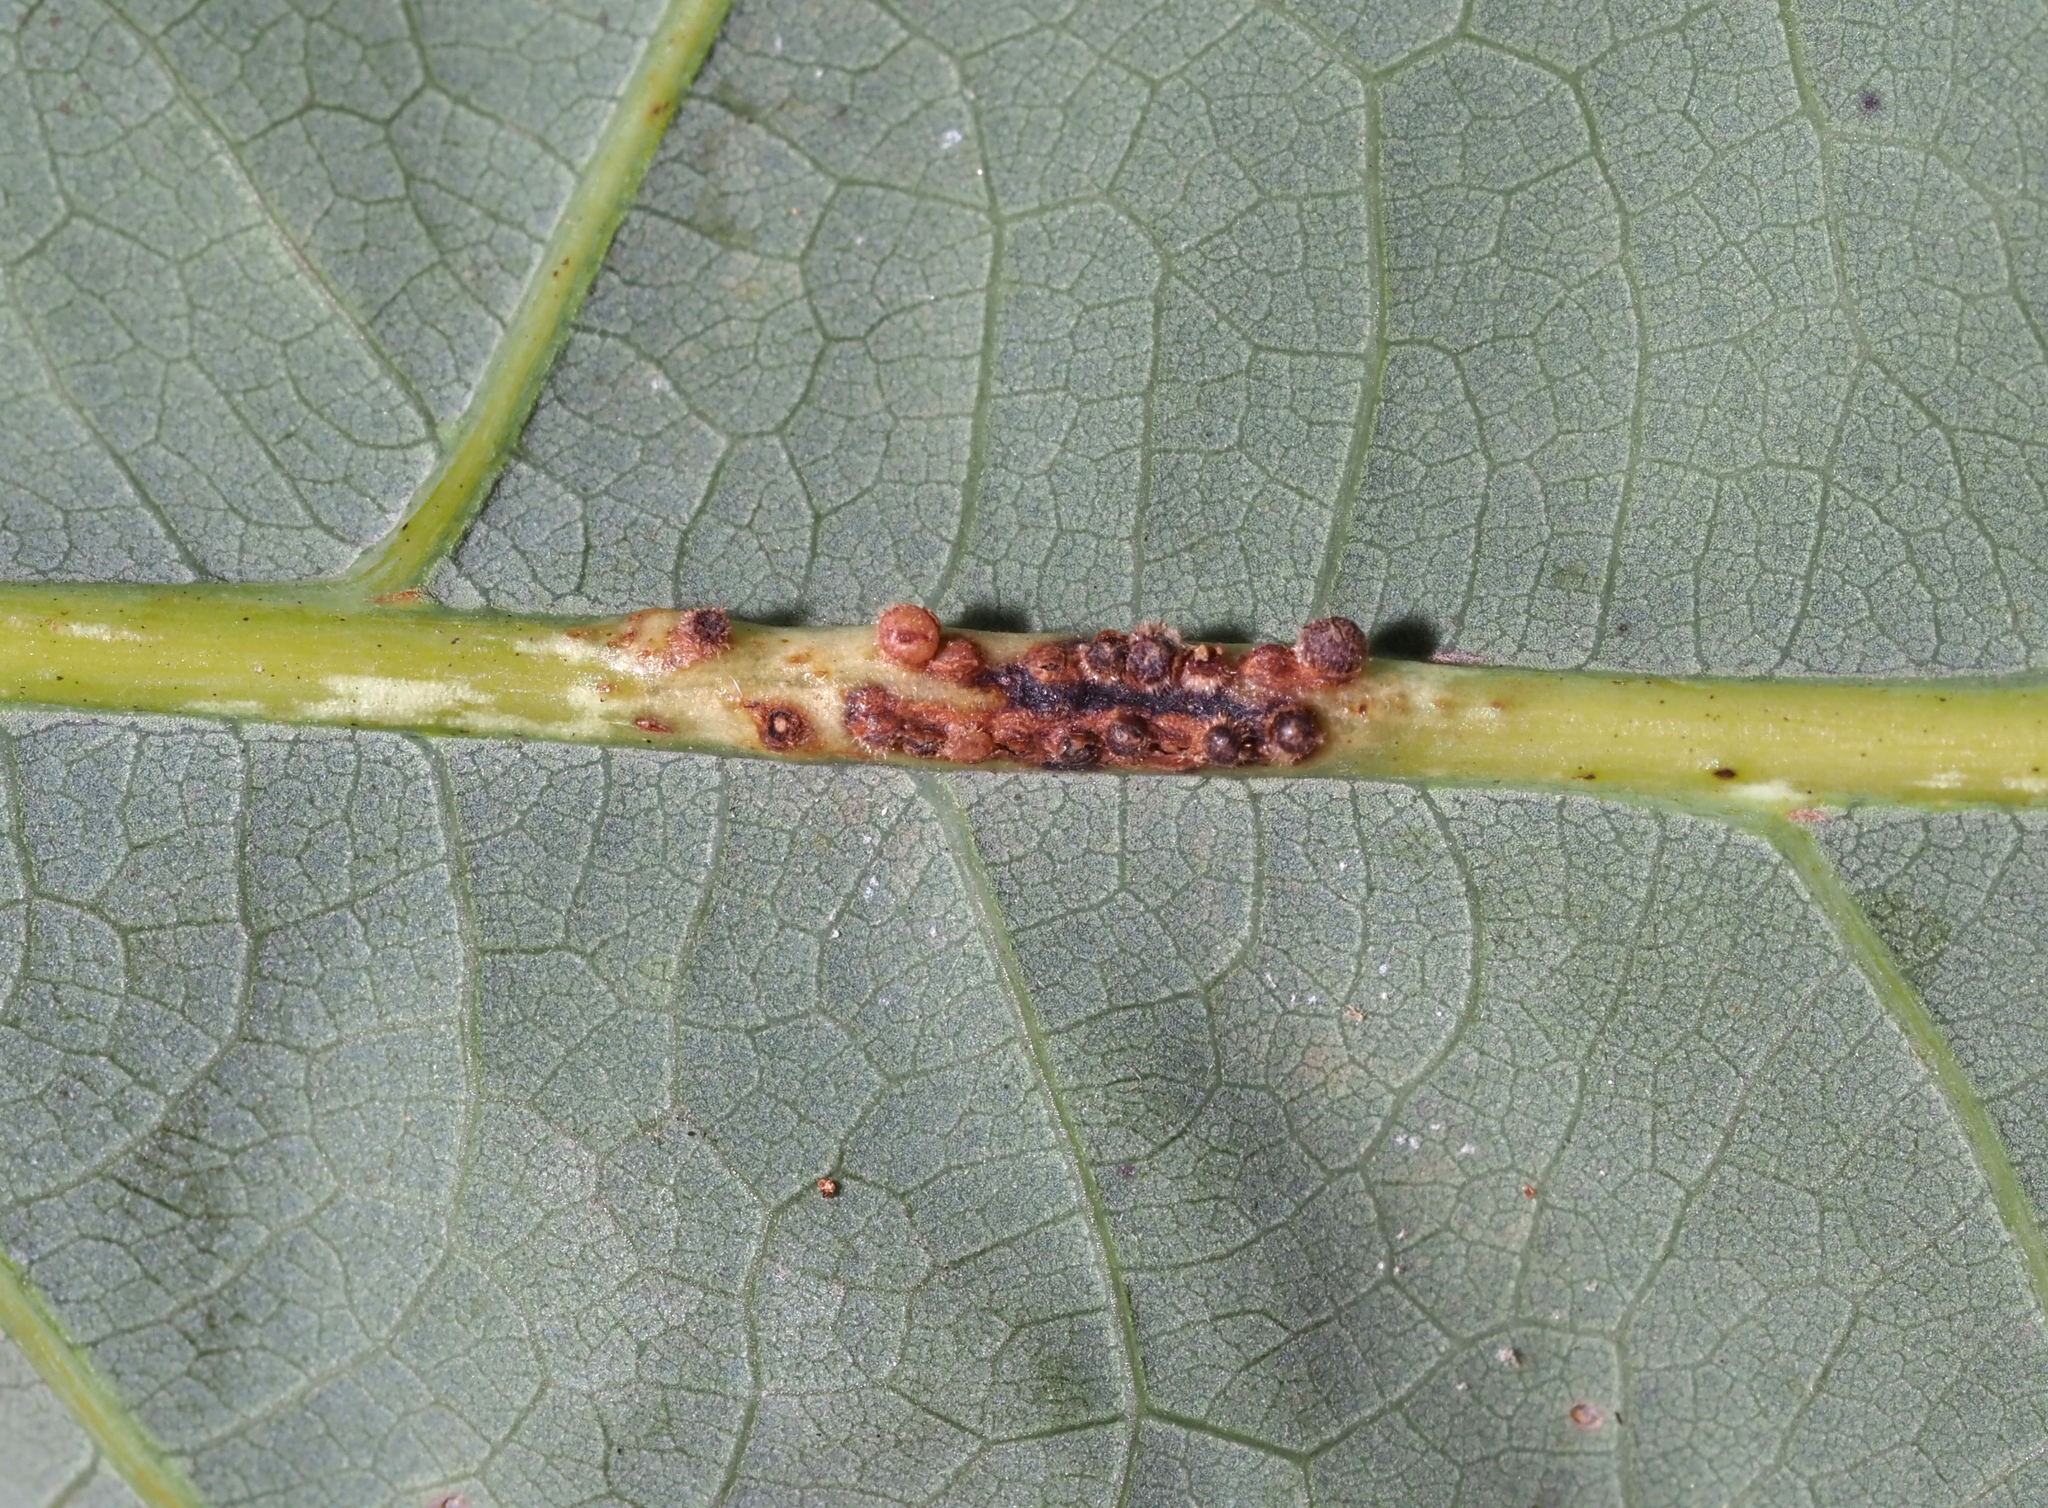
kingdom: Animalia
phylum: Arthropoda
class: Insecta
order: Hymenoptera
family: Cynipidae
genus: Andricus
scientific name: Andricus
